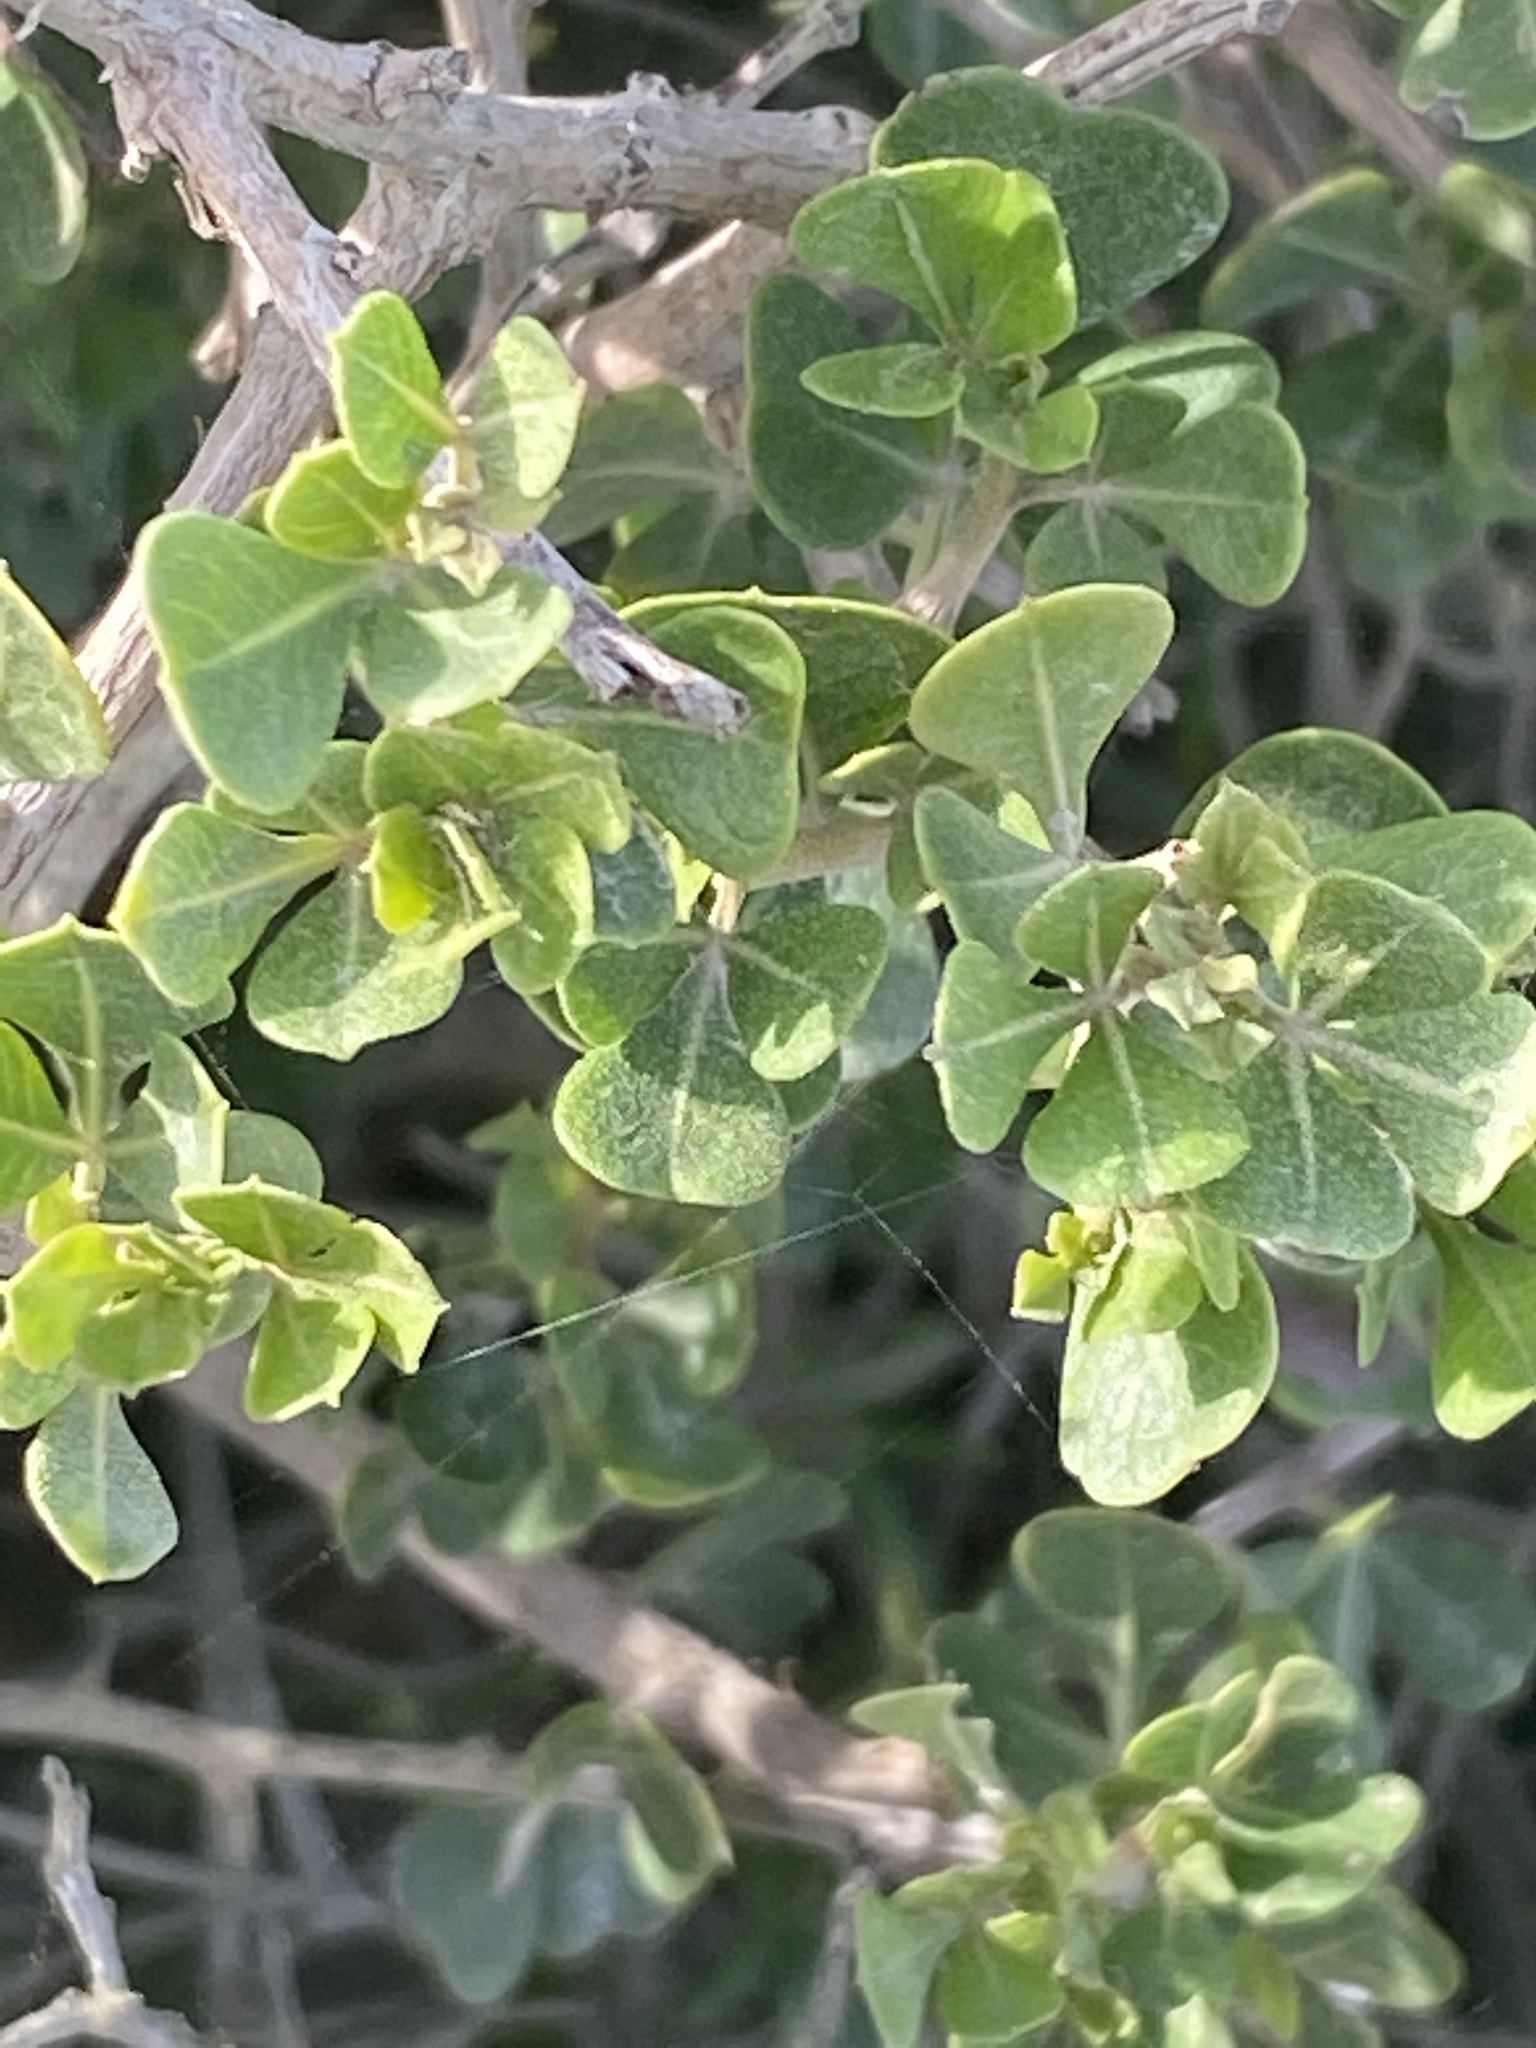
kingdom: Plantae
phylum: Tracheophyta
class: Magnoliopsida
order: Sapindales
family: Anacardiaceae
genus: Searsia
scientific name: Searsia glauca
